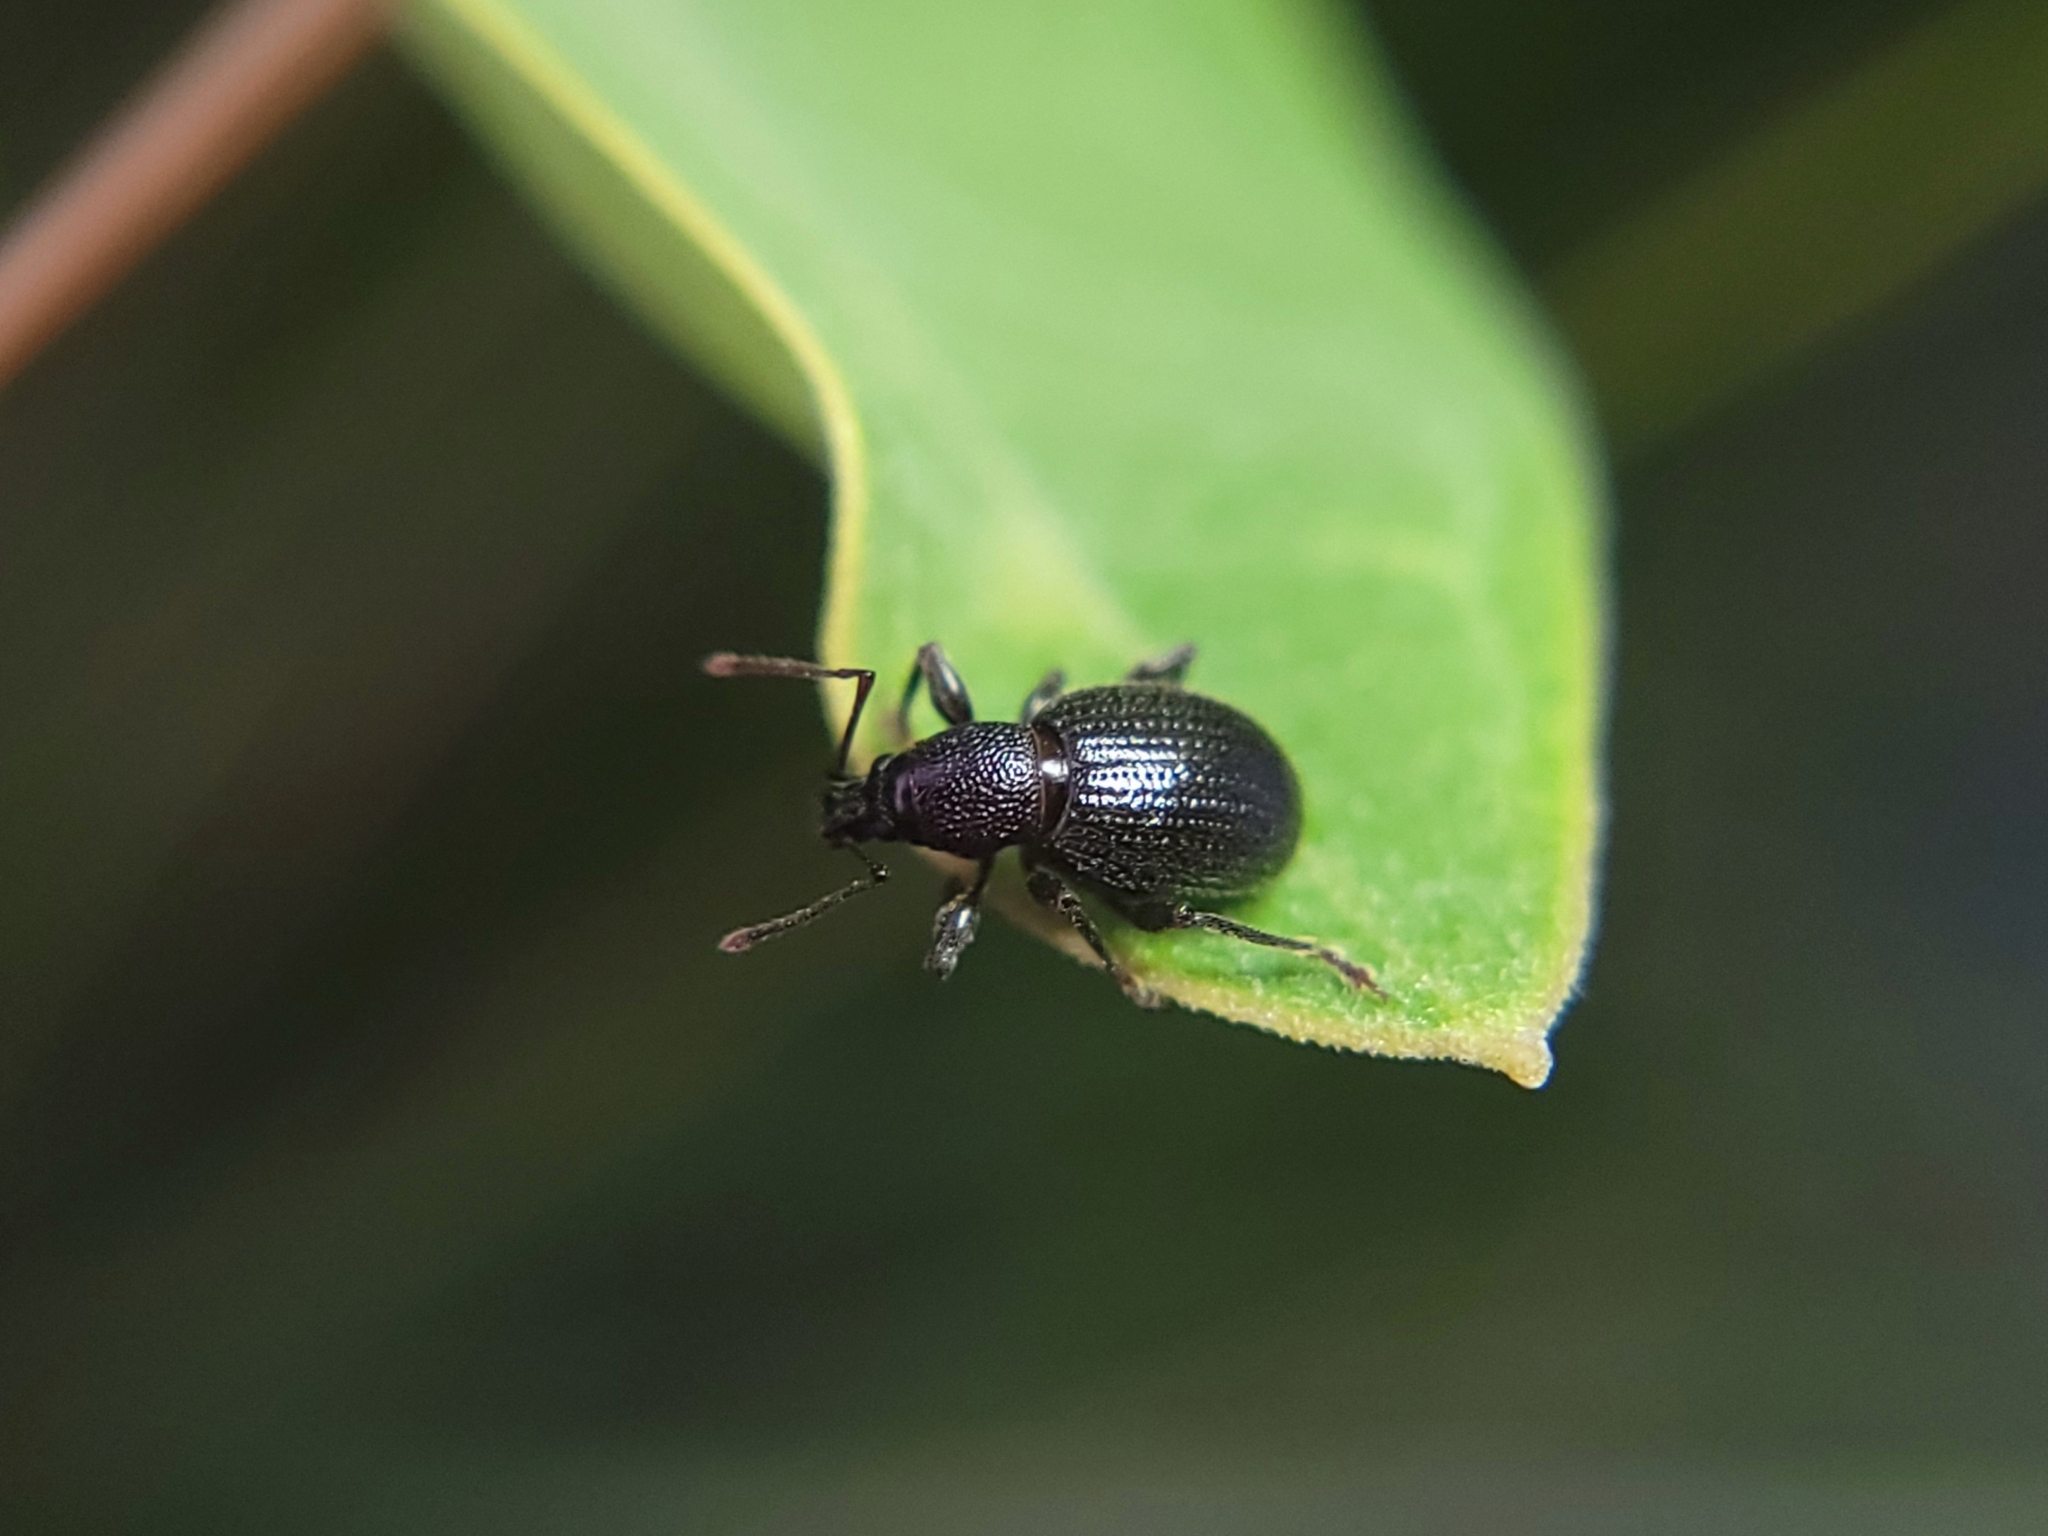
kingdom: Animalia
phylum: Arthropoda
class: Insecta
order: Coleoptera
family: Curculionidae
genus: Otiorhynchus
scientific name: Otiorhynchus meridionalis
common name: Weevil
